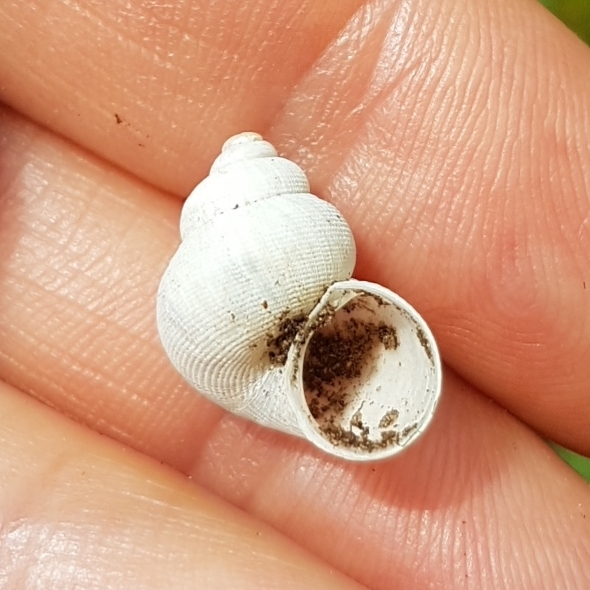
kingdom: Animalia
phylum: Mollusca
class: Gastropoda
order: Littorinimorpha
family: Pomatiidae
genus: Pomatias
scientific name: Pomatias elegans
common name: Red-mouthed snail
